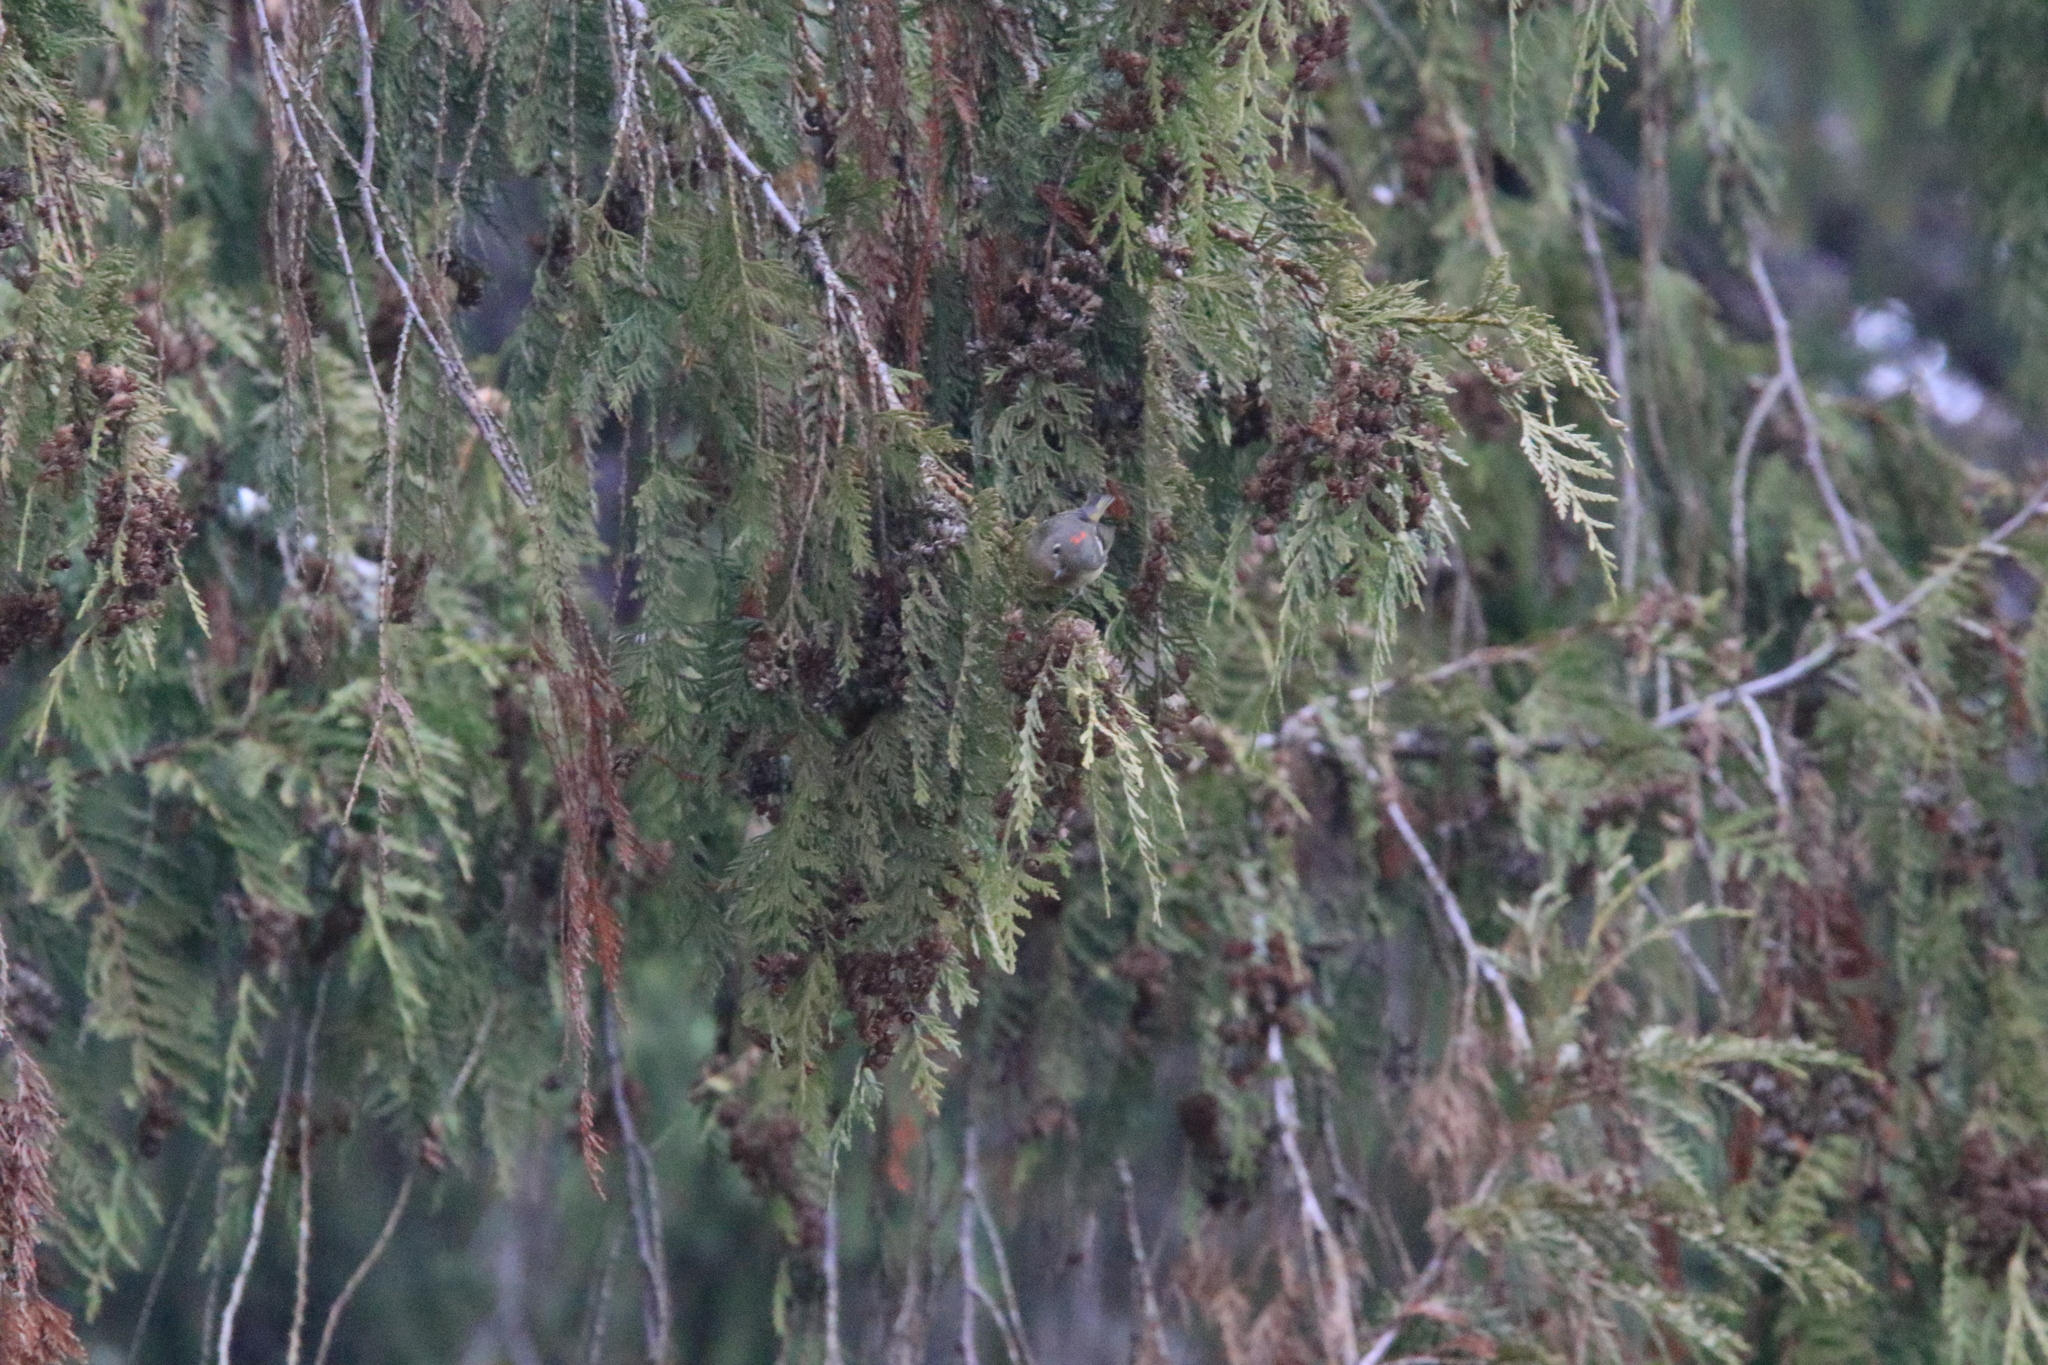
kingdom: Animalia
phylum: Chordata
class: Aves
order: Passeriformes
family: Regulidae
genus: Regulus
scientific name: Regulus calendula
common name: Ruby-crowned kinglet
